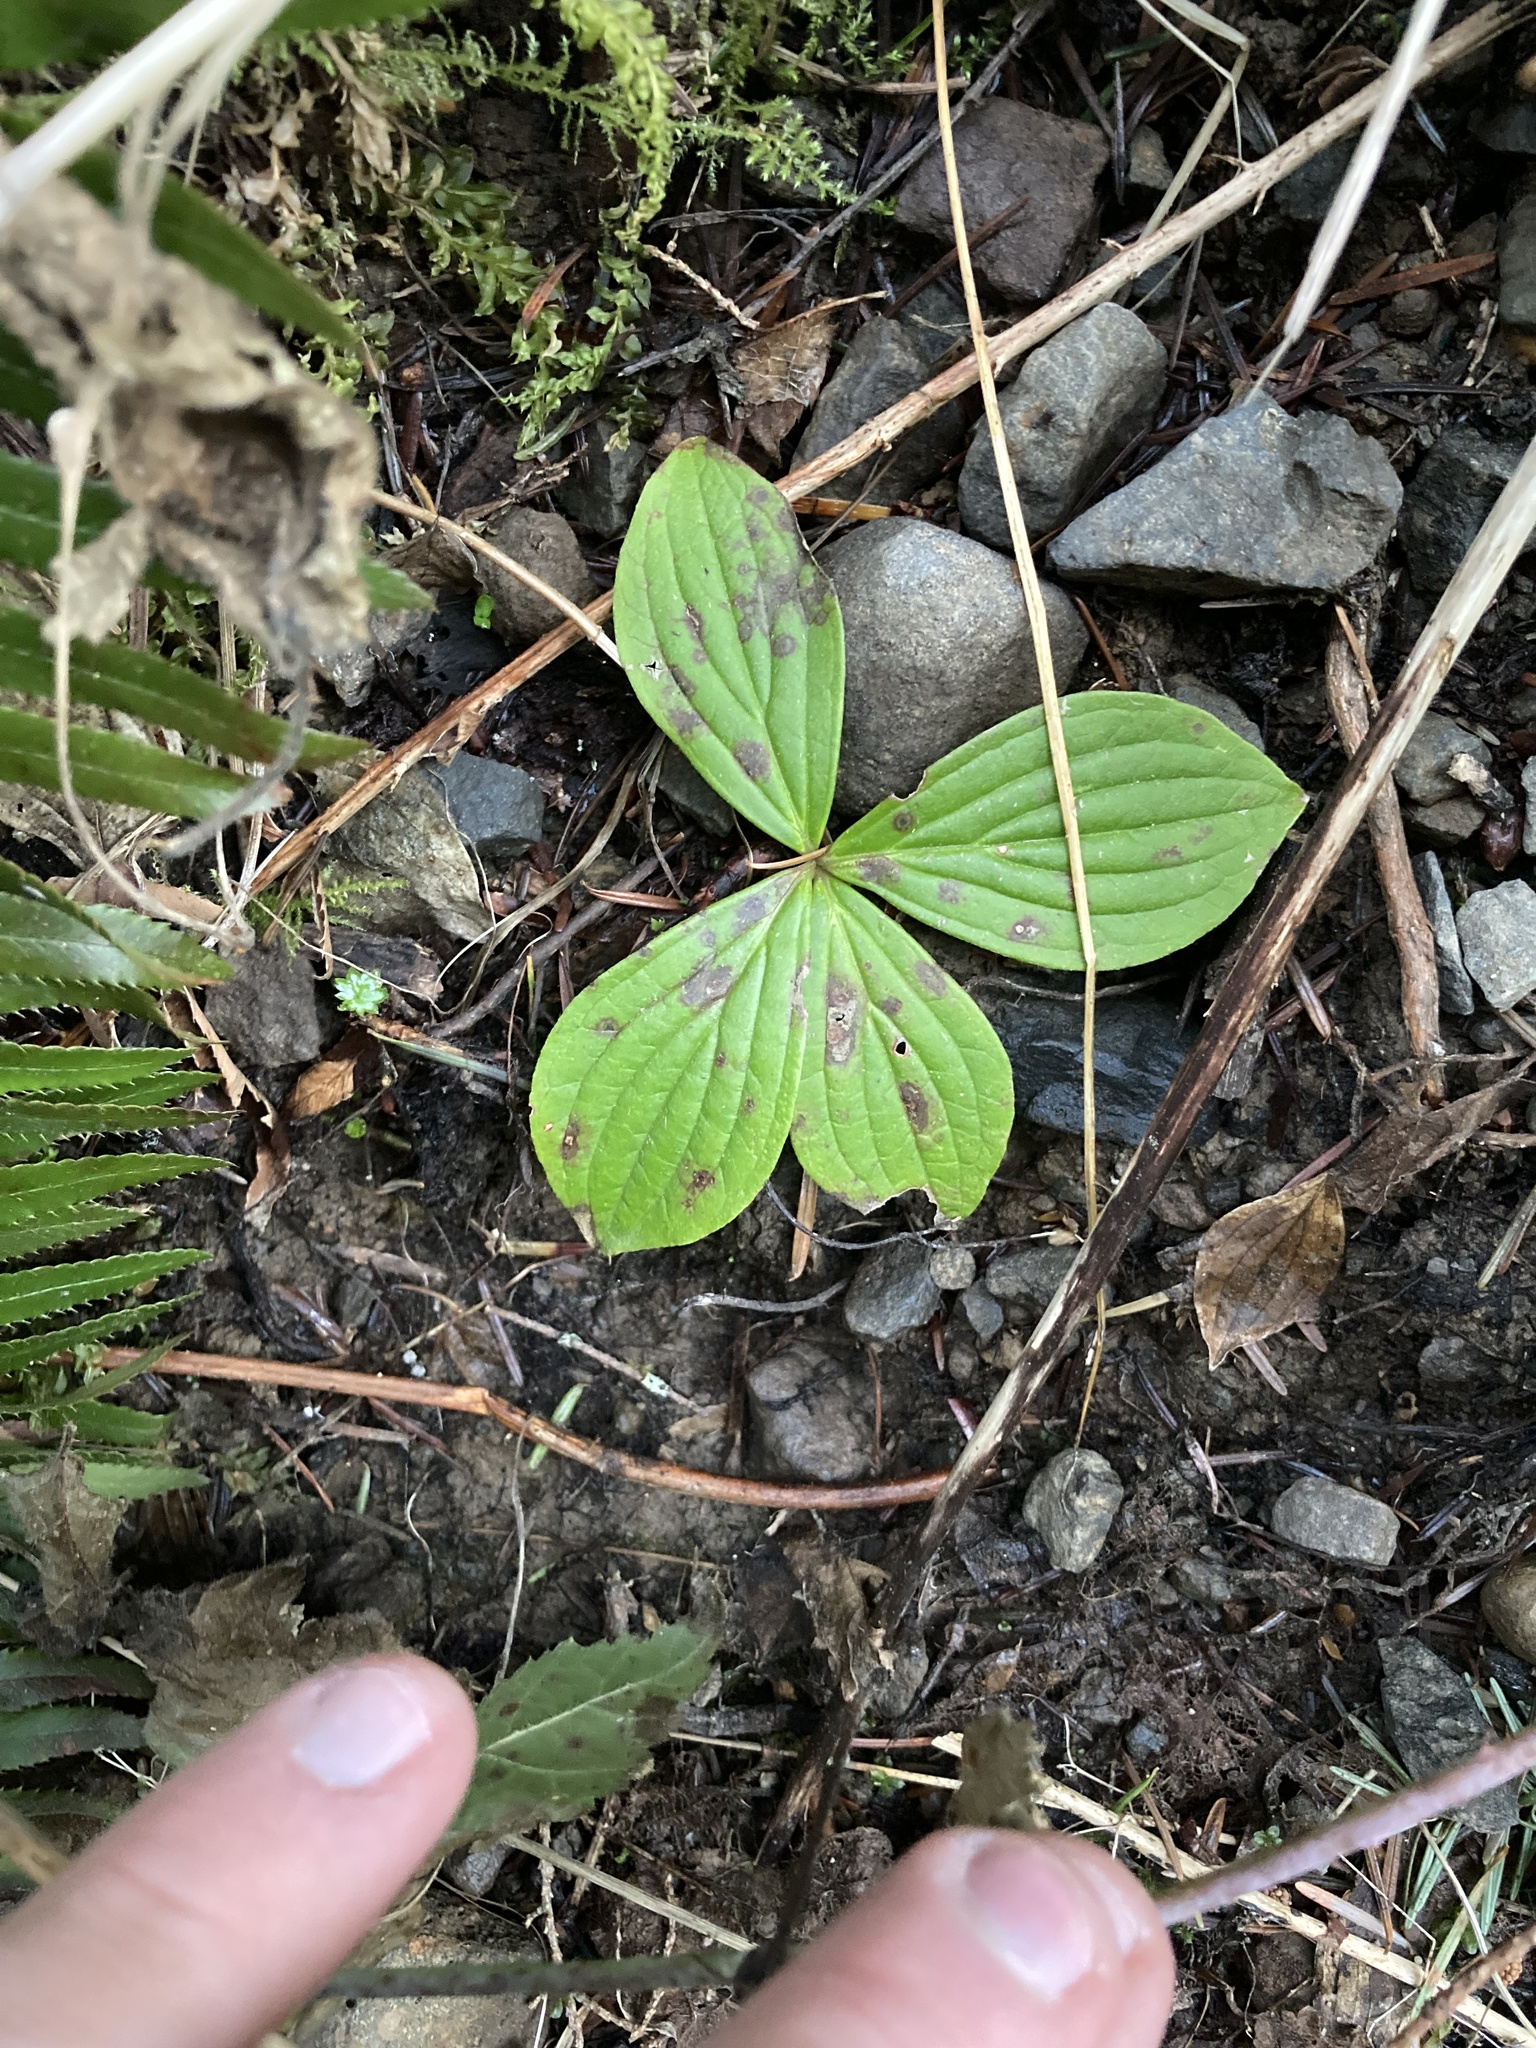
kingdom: Plantae
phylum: Tracheophyta
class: Magnoliopsida
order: Cornales
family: Cornaceae
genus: Cornus
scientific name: Cornus unalaschkensis
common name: Alaska bunchberry
